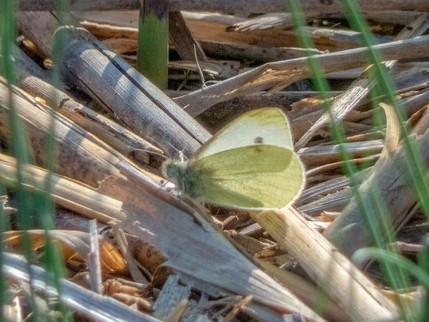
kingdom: Animalia
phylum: Arthropoda
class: Insecta
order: Lepidoptera
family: Pieridae
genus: Pieris
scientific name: Pieris rapae
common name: Small white
